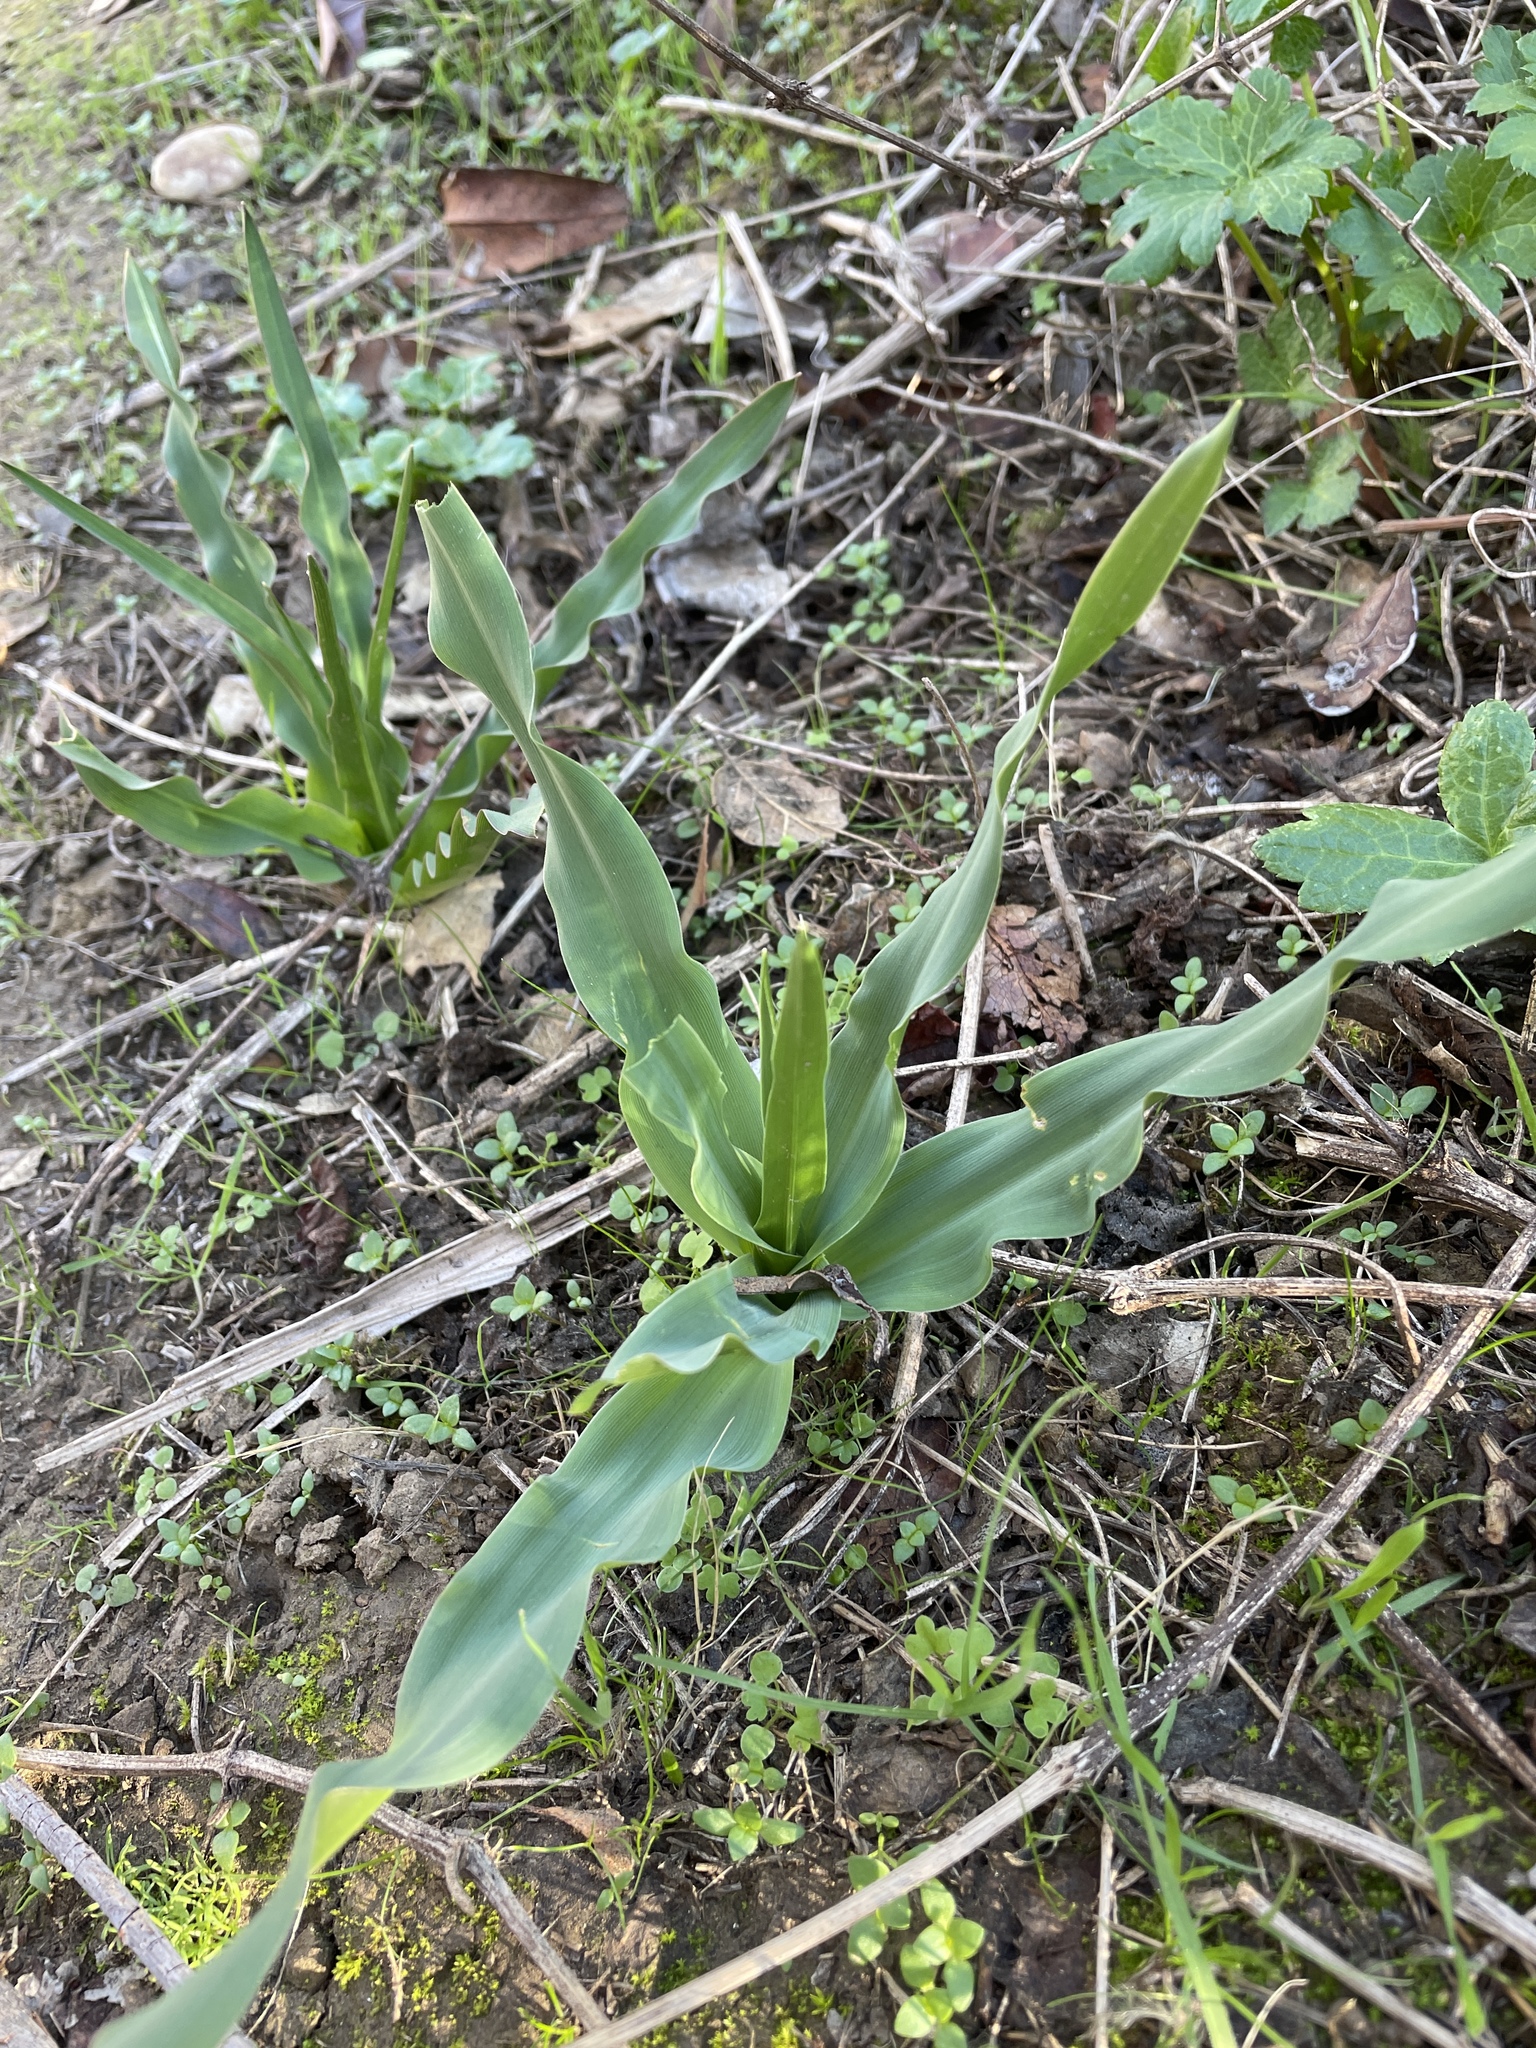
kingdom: Plantae
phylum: Tracheophyta
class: Liliopsida
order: Asparagales
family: Asparagaceae
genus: Chlorogalum
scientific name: Chlorogalum pomeridianum
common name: Amole
